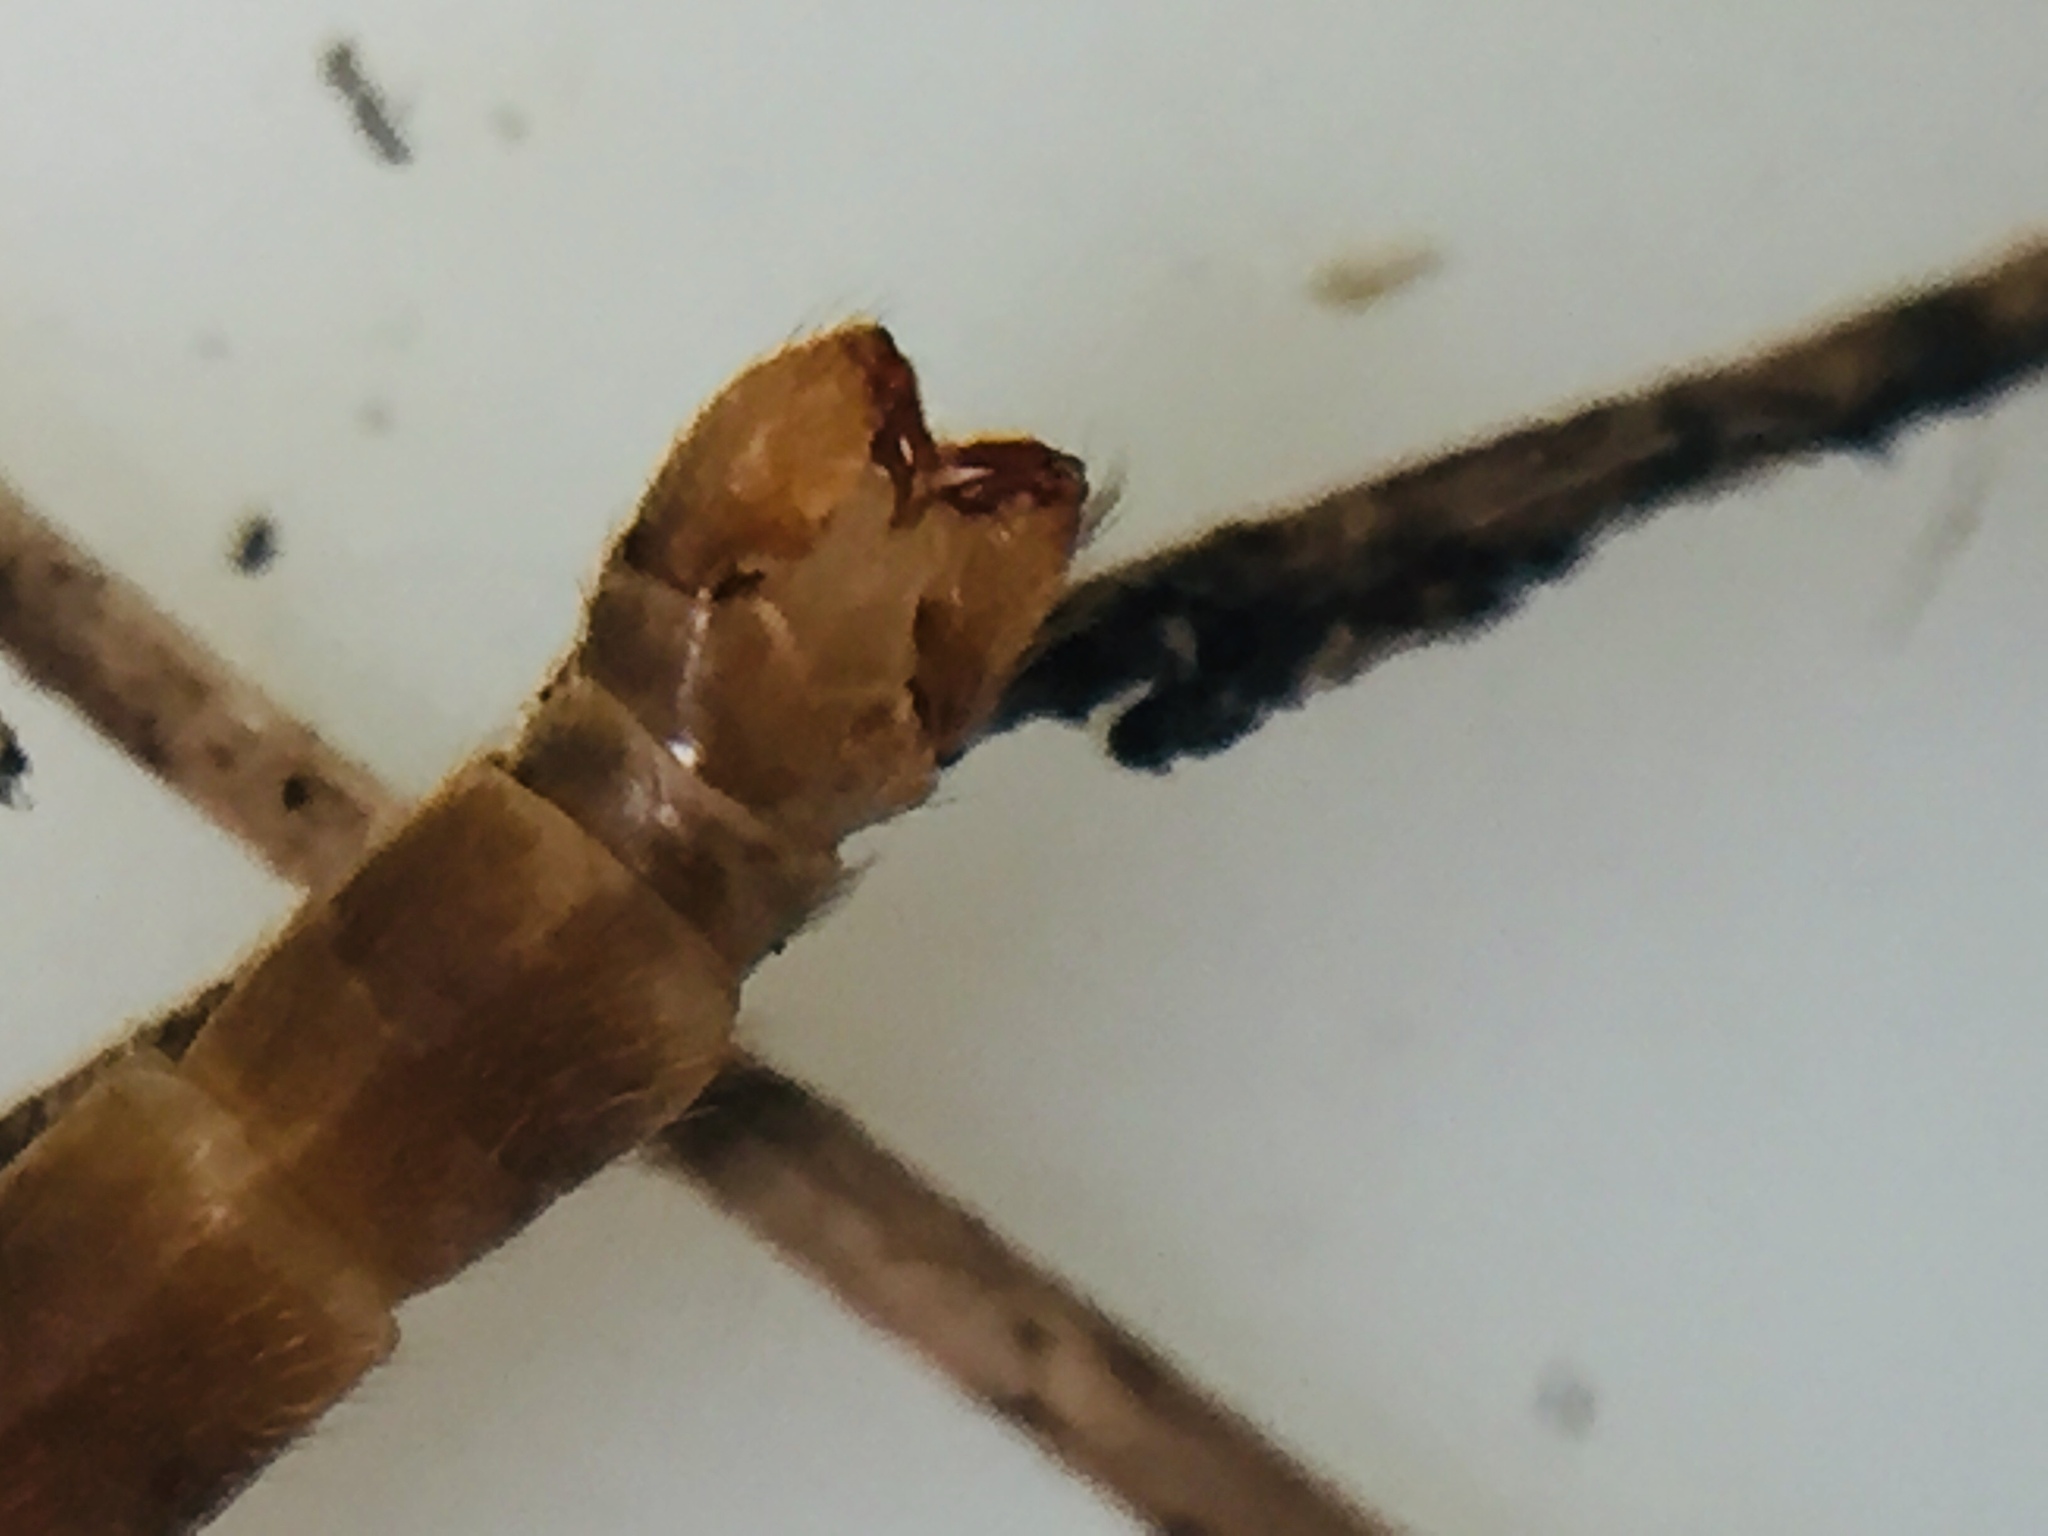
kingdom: Animalia
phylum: Arthropoda
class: Insecta
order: Diptera
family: Limoniidae
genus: Austrolimnophila
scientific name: Austrolimnophila crassipes
